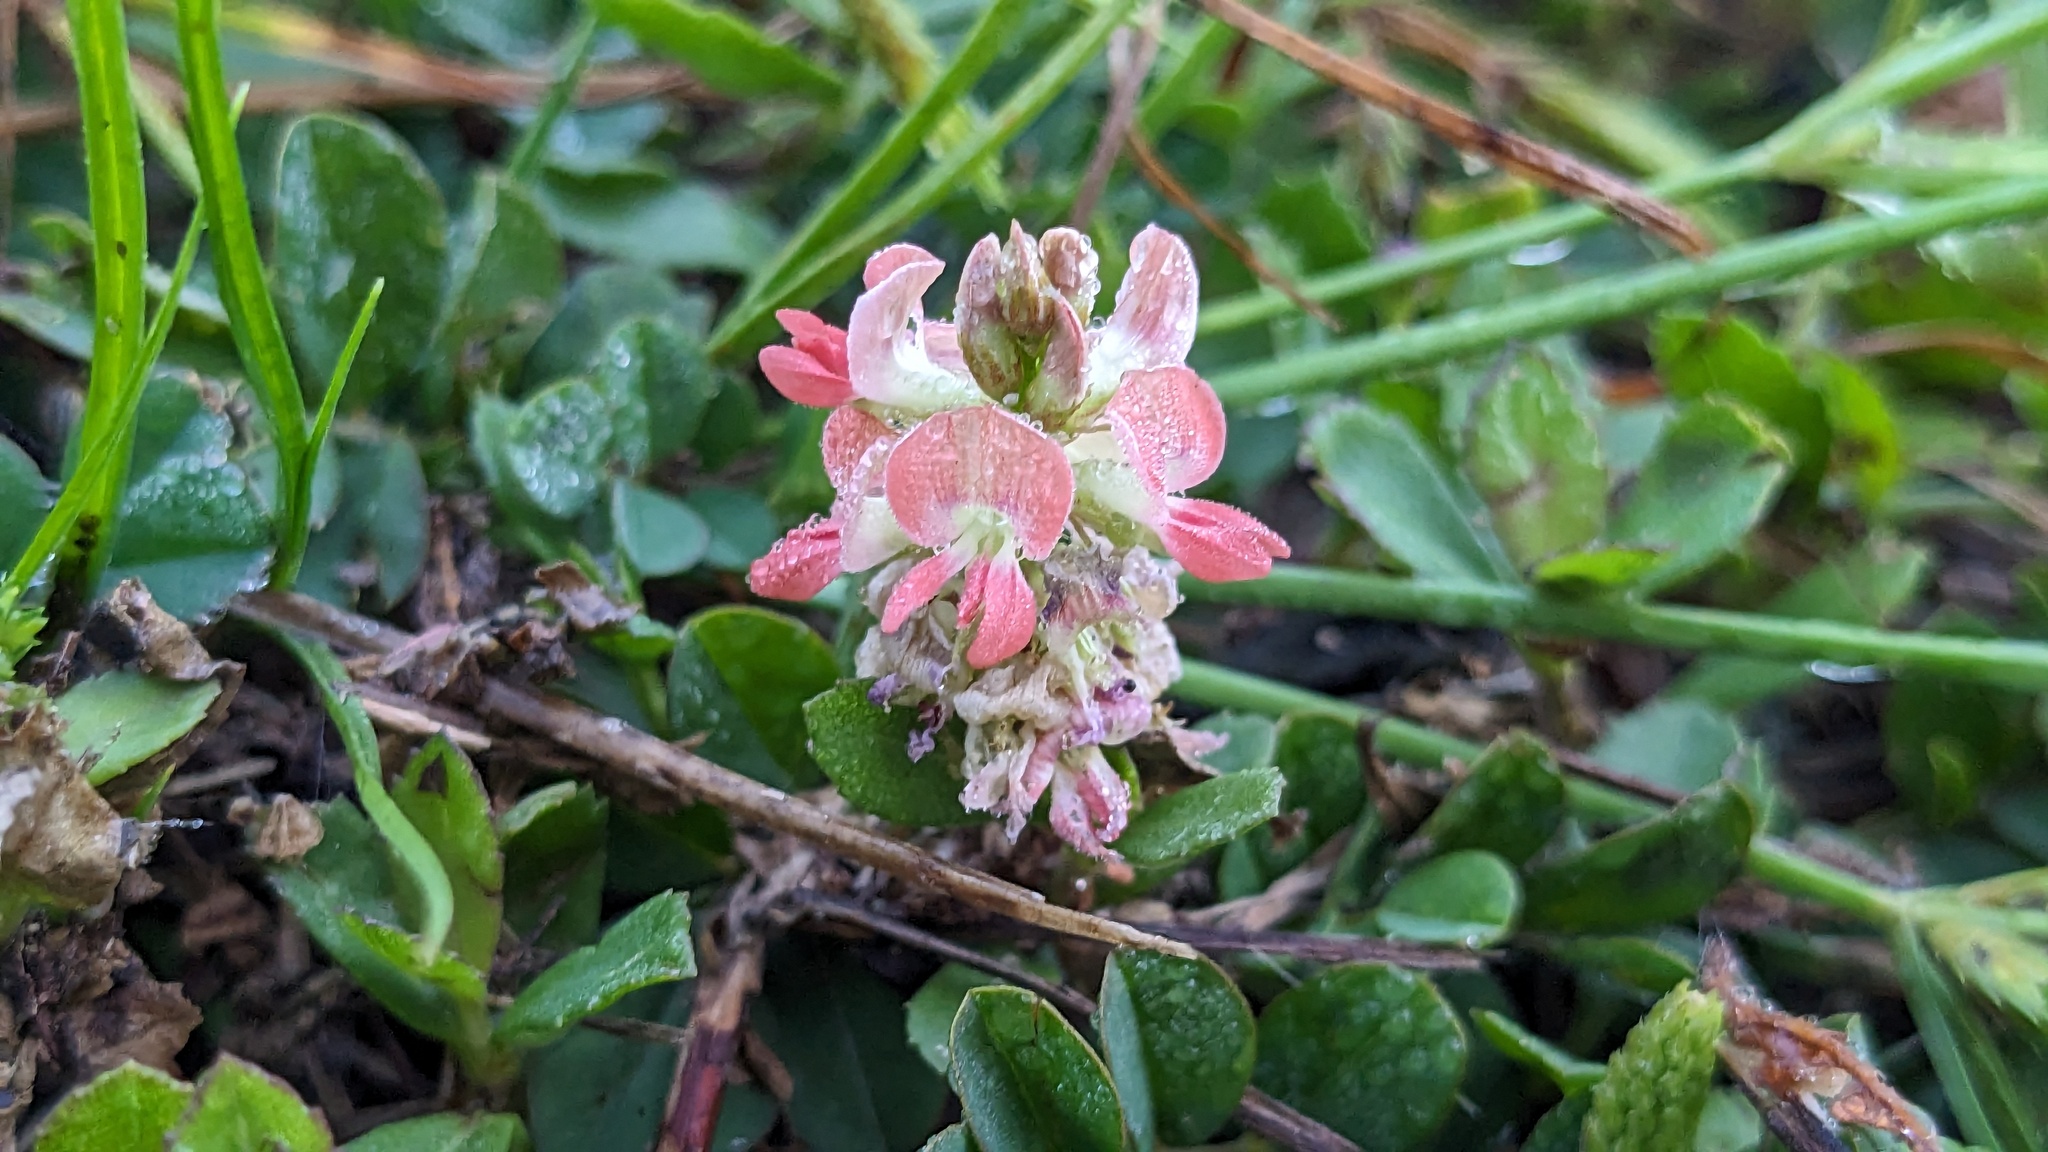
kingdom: Plantae
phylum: Tracheophyta
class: Magnoliopsida
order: Fabales
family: Fabaceae
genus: Indigofera
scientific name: Indigofera spicata
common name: Creeping indigo
